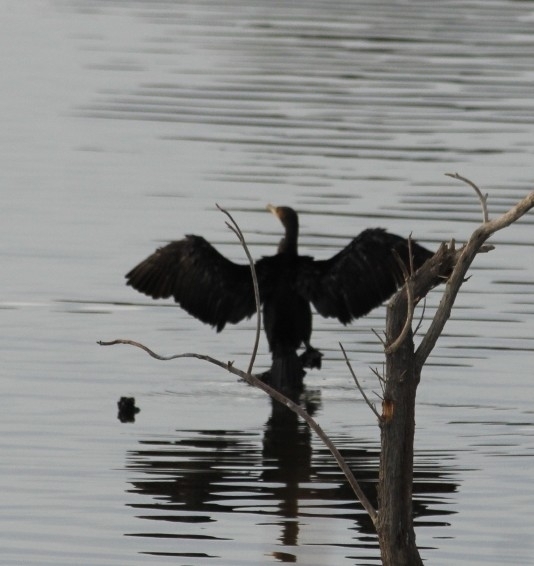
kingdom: Animalia
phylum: Chordata
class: Aves
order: Suliformes
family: Phalacrocoracidae
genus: Phalacrocorax
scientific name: Phalacrocorax auritus
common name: Double-crested cormorant
